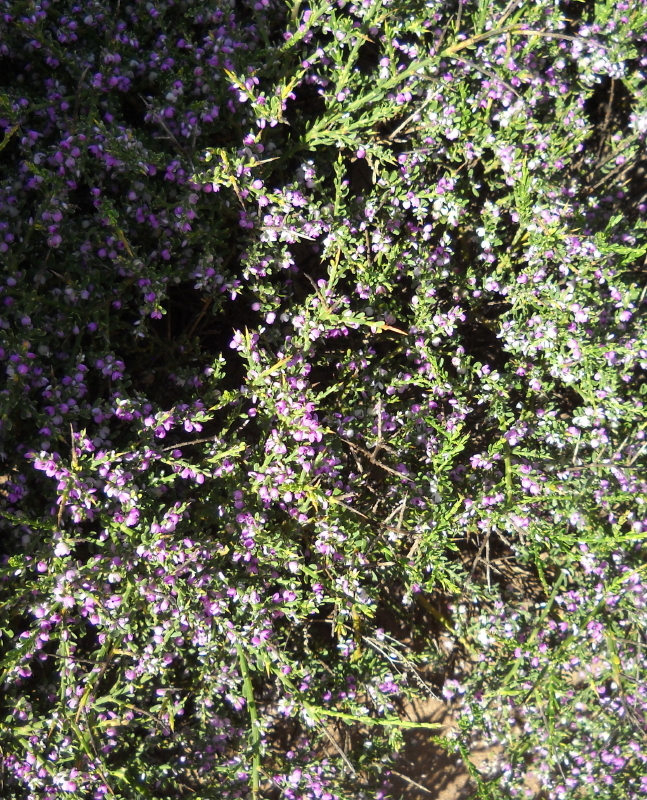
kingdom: Plantae
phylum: Tracheophyta
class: Magnoliopsida
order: Fabales
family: Polygalaceae
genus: Muraltia
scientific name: Muraltia spinosa
